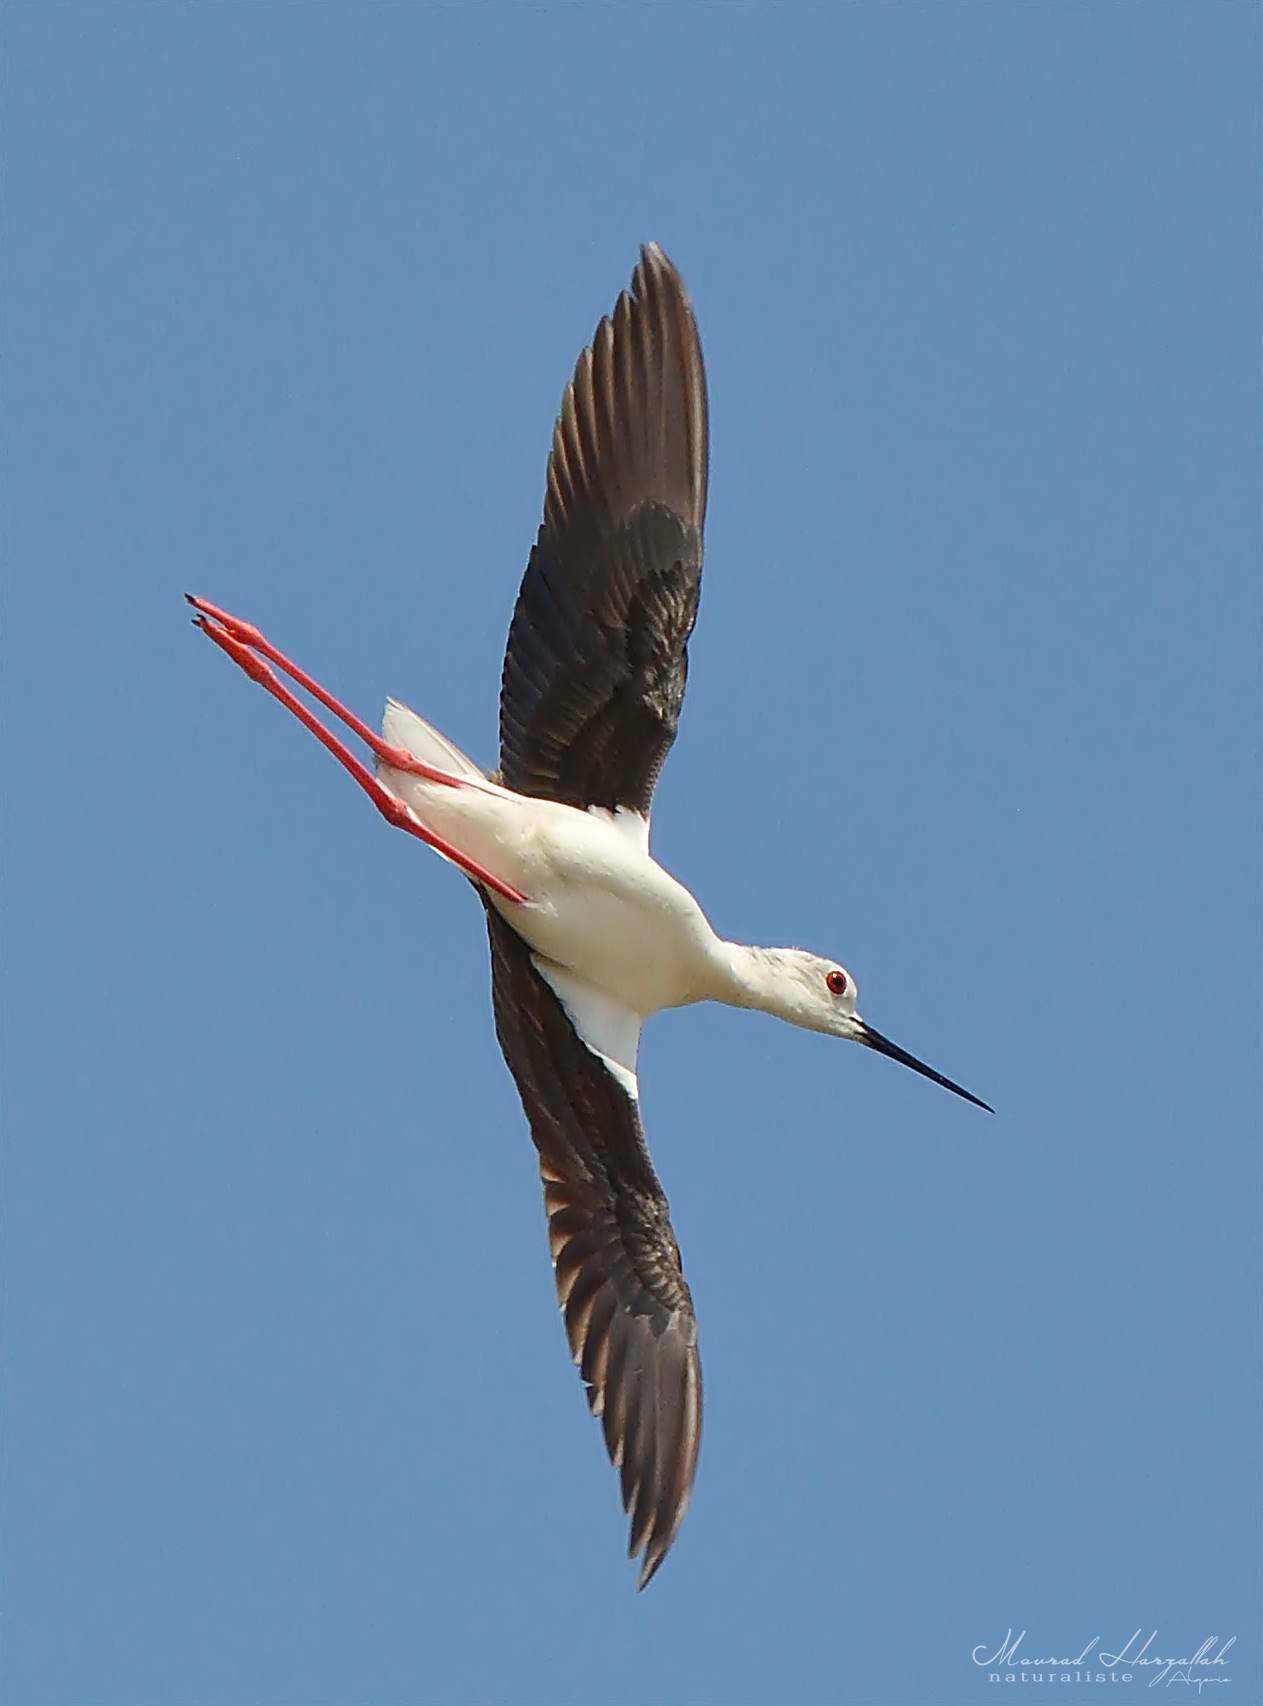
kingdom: Animalia
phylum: Chordata
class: Aves
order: Charadriiformes
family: Recurvirostridae
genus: Himantopus
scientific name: Himantopus himantopus
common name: Black-winged stilt
